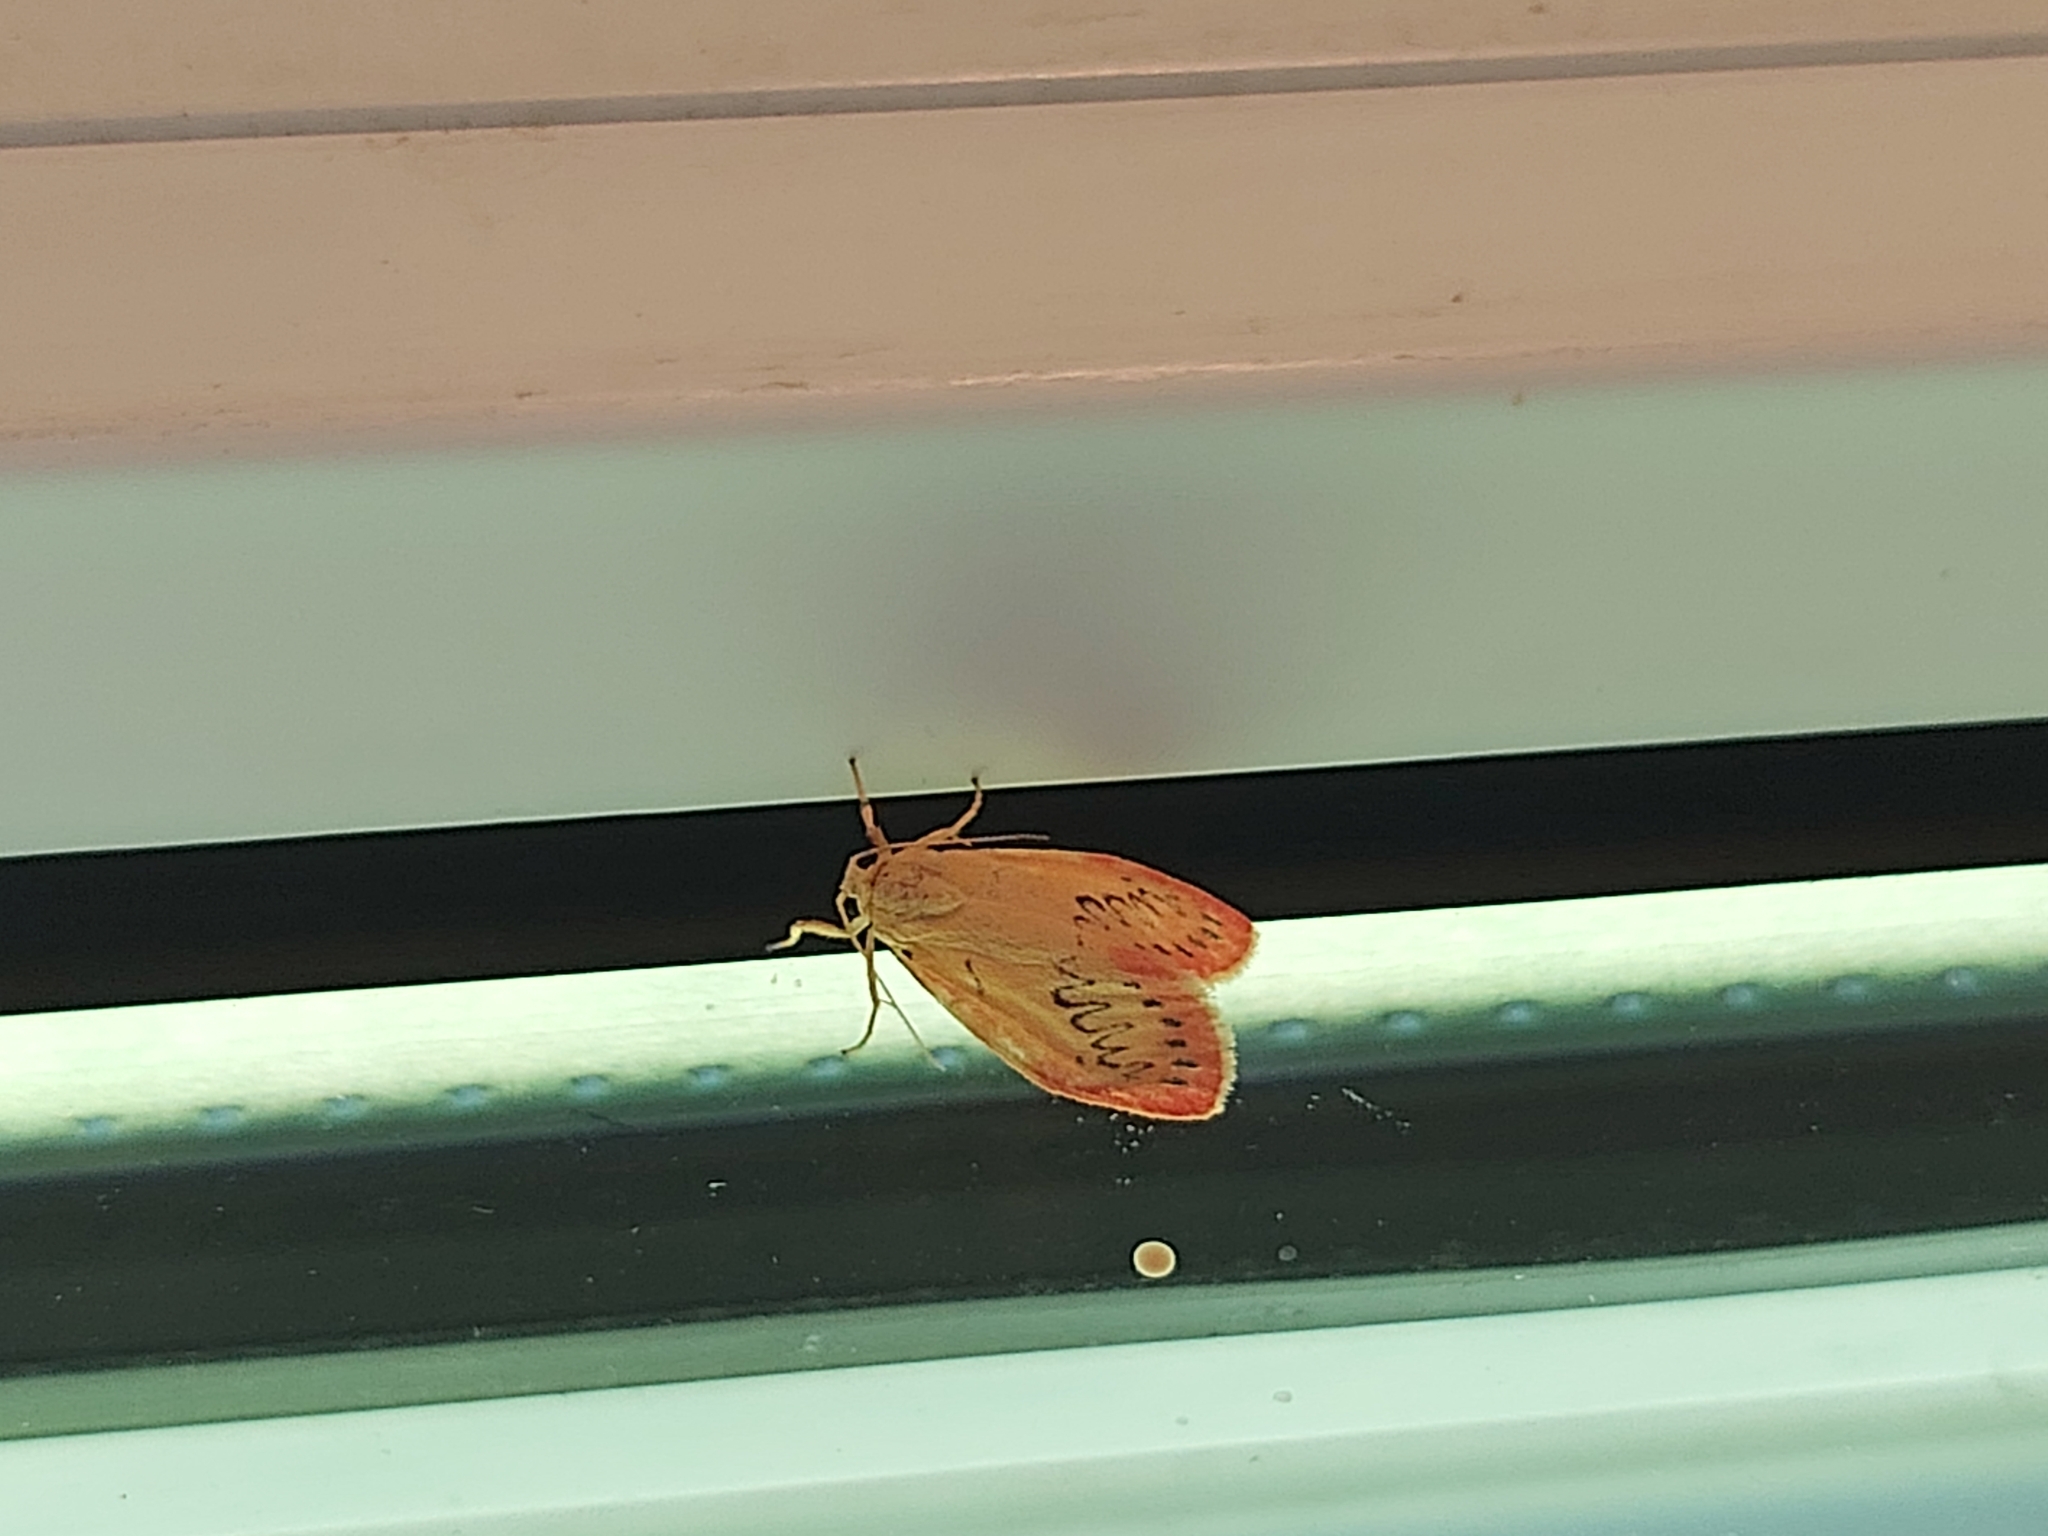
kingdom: Animalia
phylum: Arthropoda
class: Insecta
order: Lepidoptera
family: Erebidae
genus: Miltochrista
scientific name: Miltochrista miniata
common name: Rosy footman
